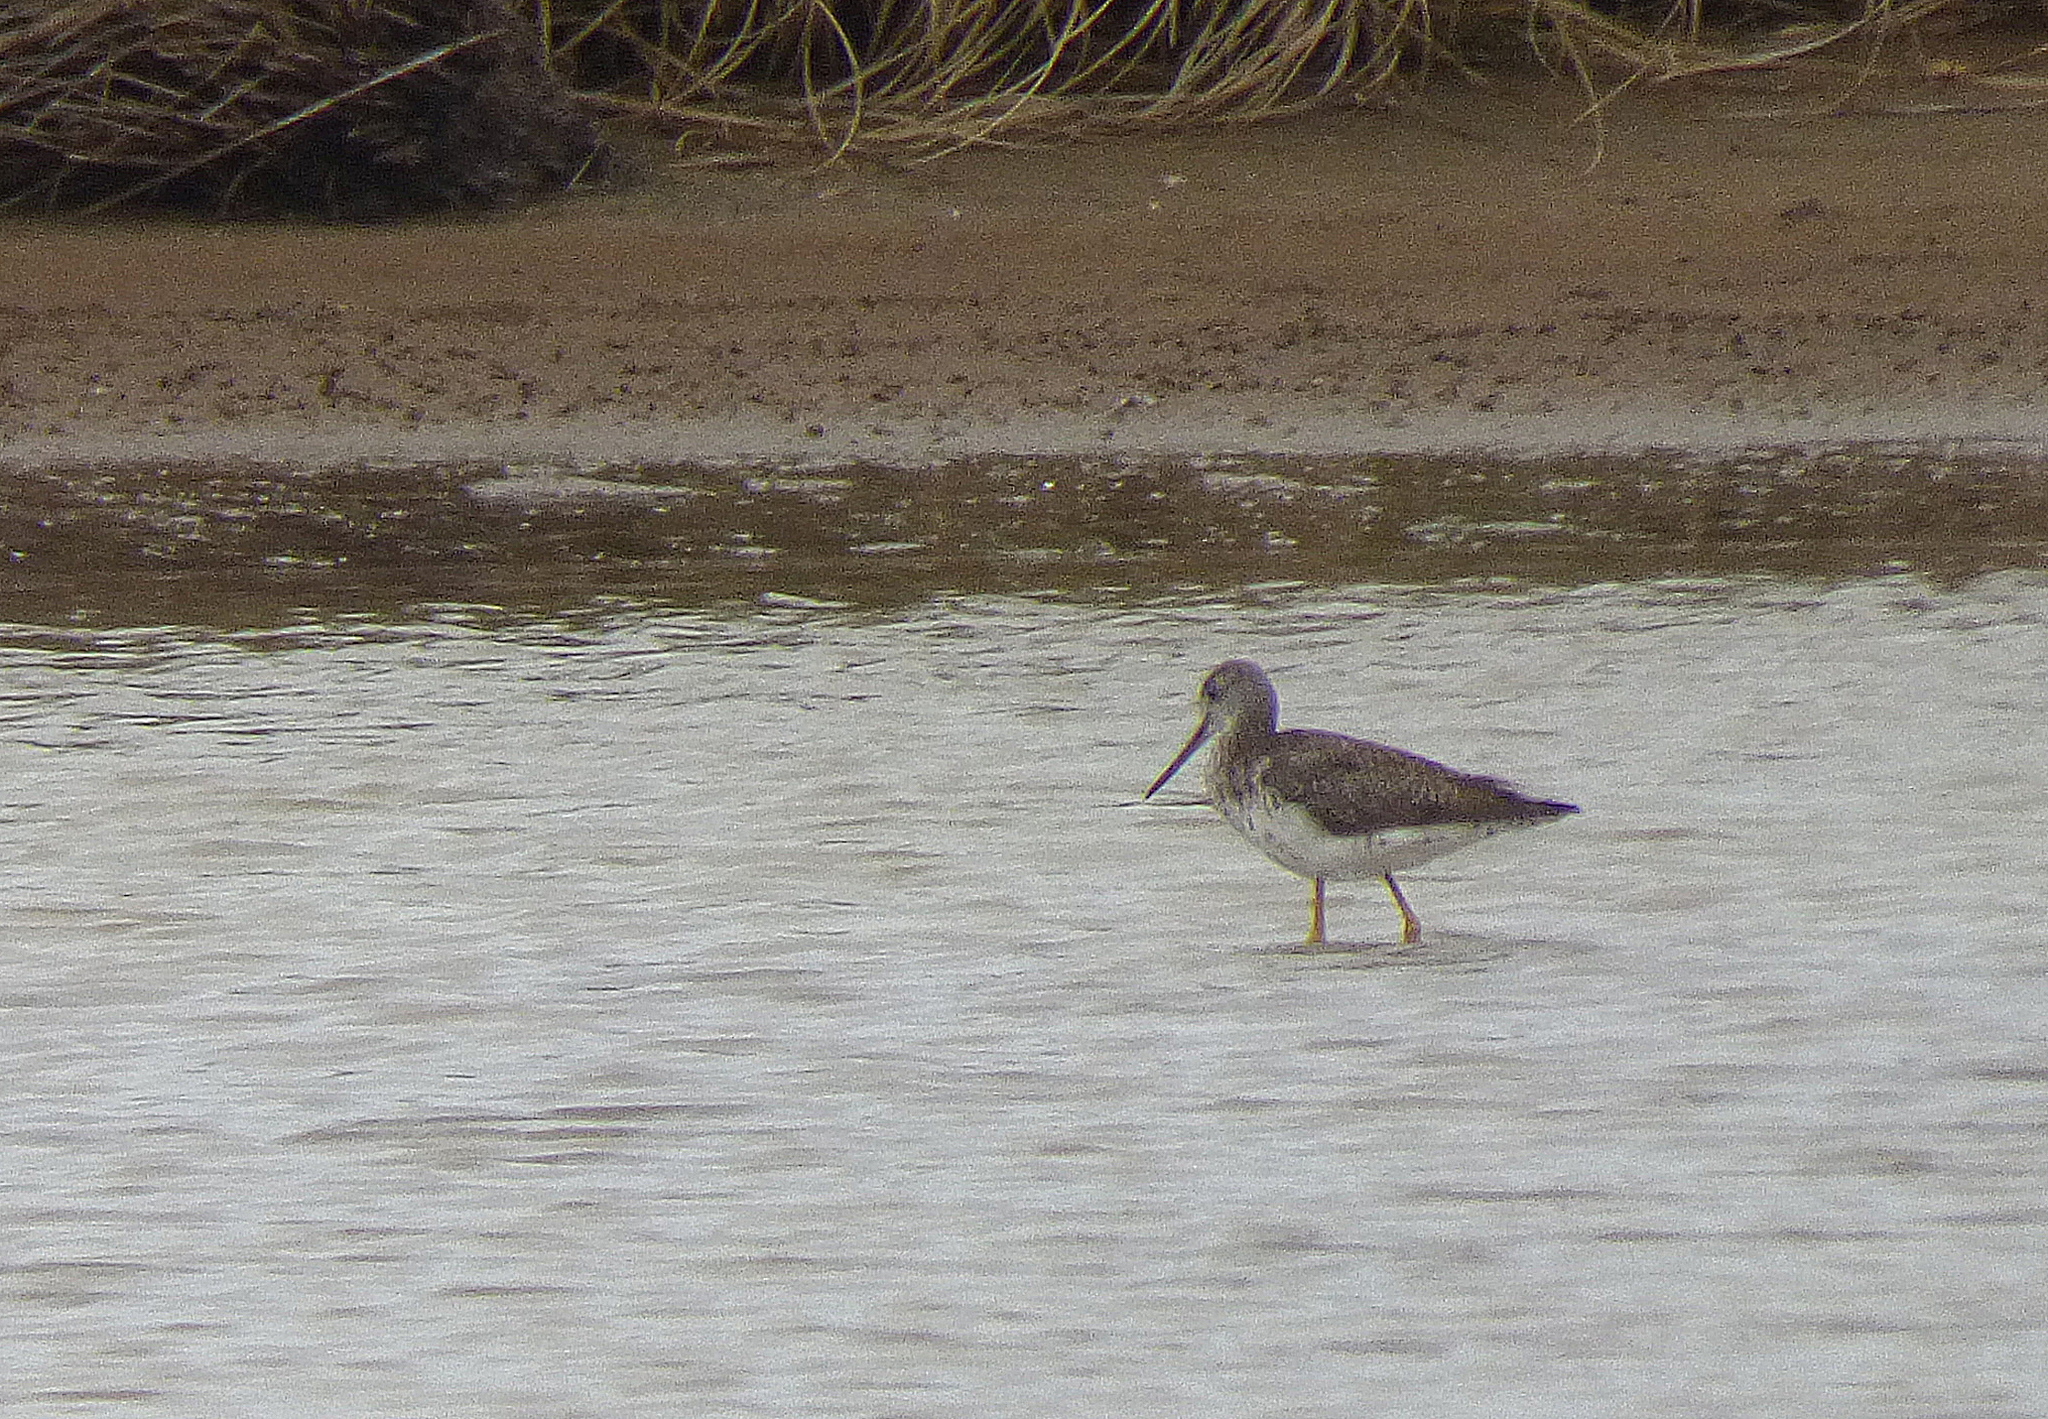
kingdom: Animalia
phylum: Chordata
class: Aves
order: Charadriiformes
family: Scolopacidae
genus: Tringa
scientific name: Tringa melanoleuca
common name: Greater yellowlegs
